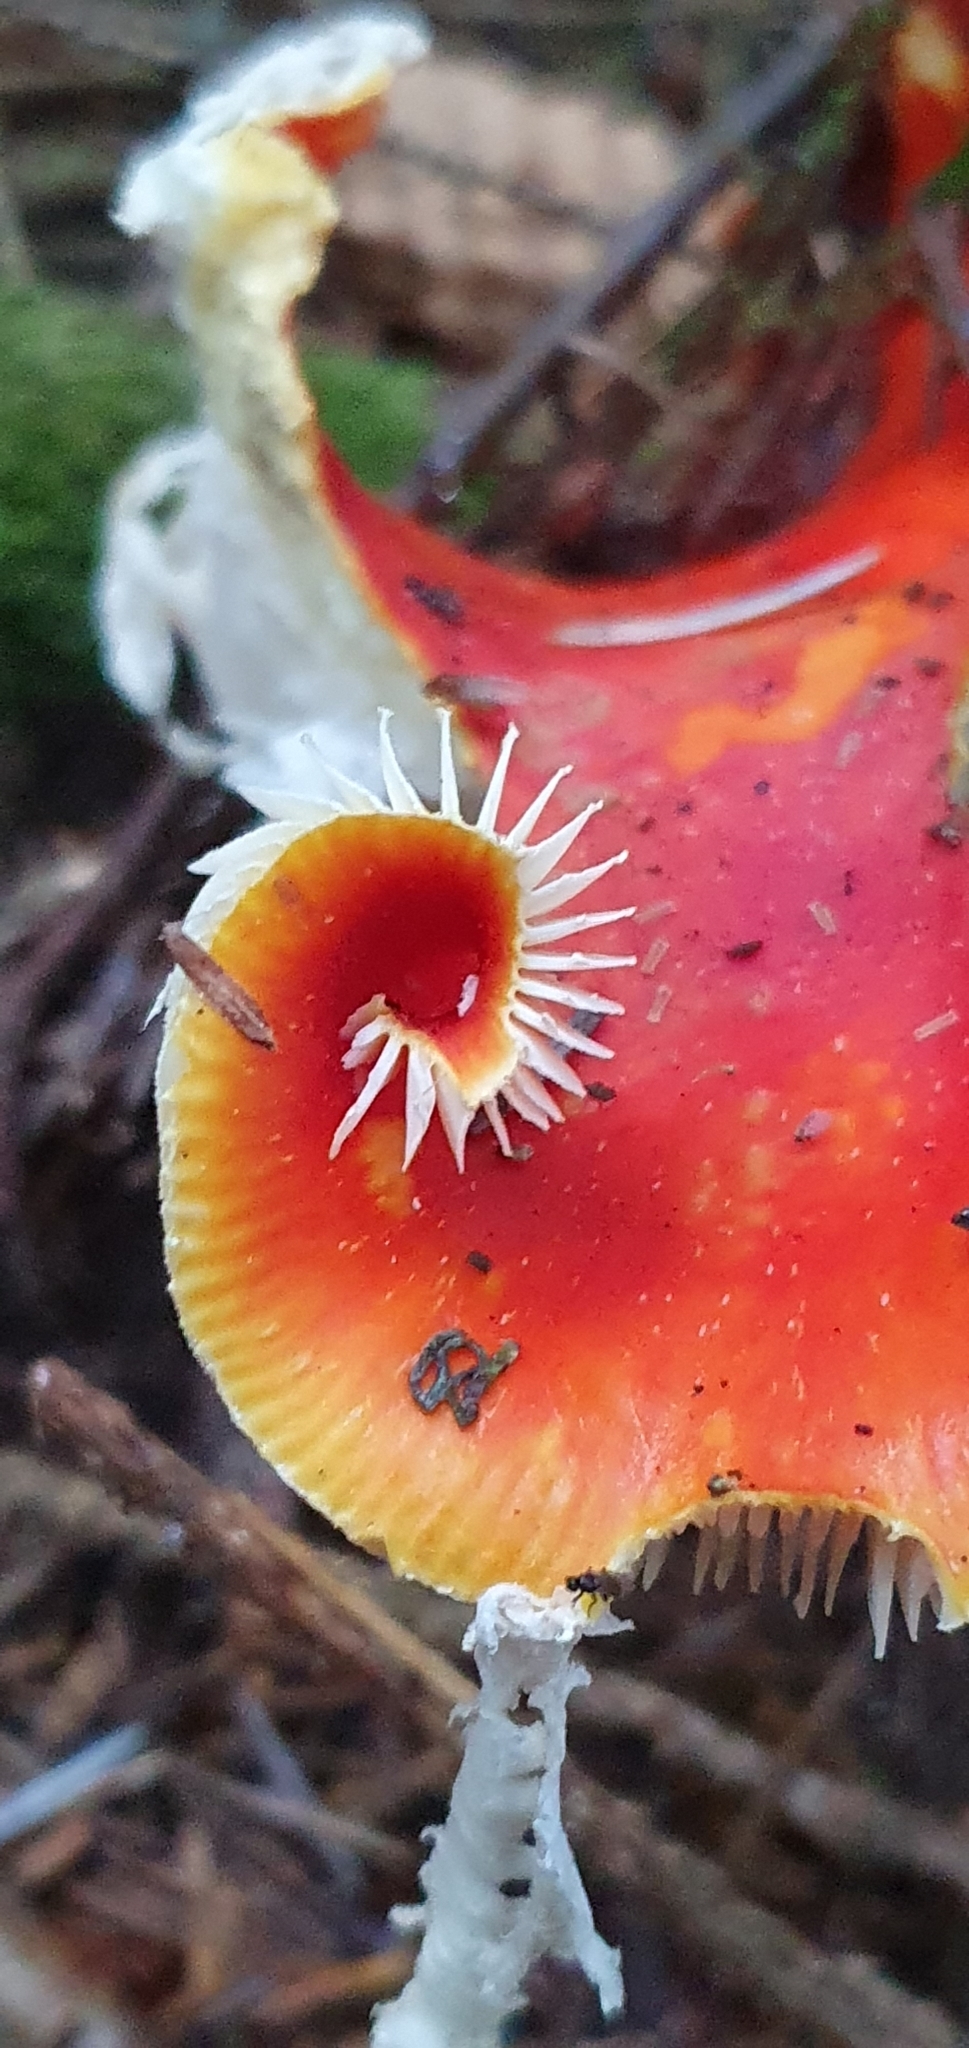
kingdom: Fungi
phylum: Basidiomycota
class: Agaricomycetes
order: Agaricales
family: Amanitaceae
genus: Amanita
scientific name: Amanita muscaria
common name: Fly agaric
